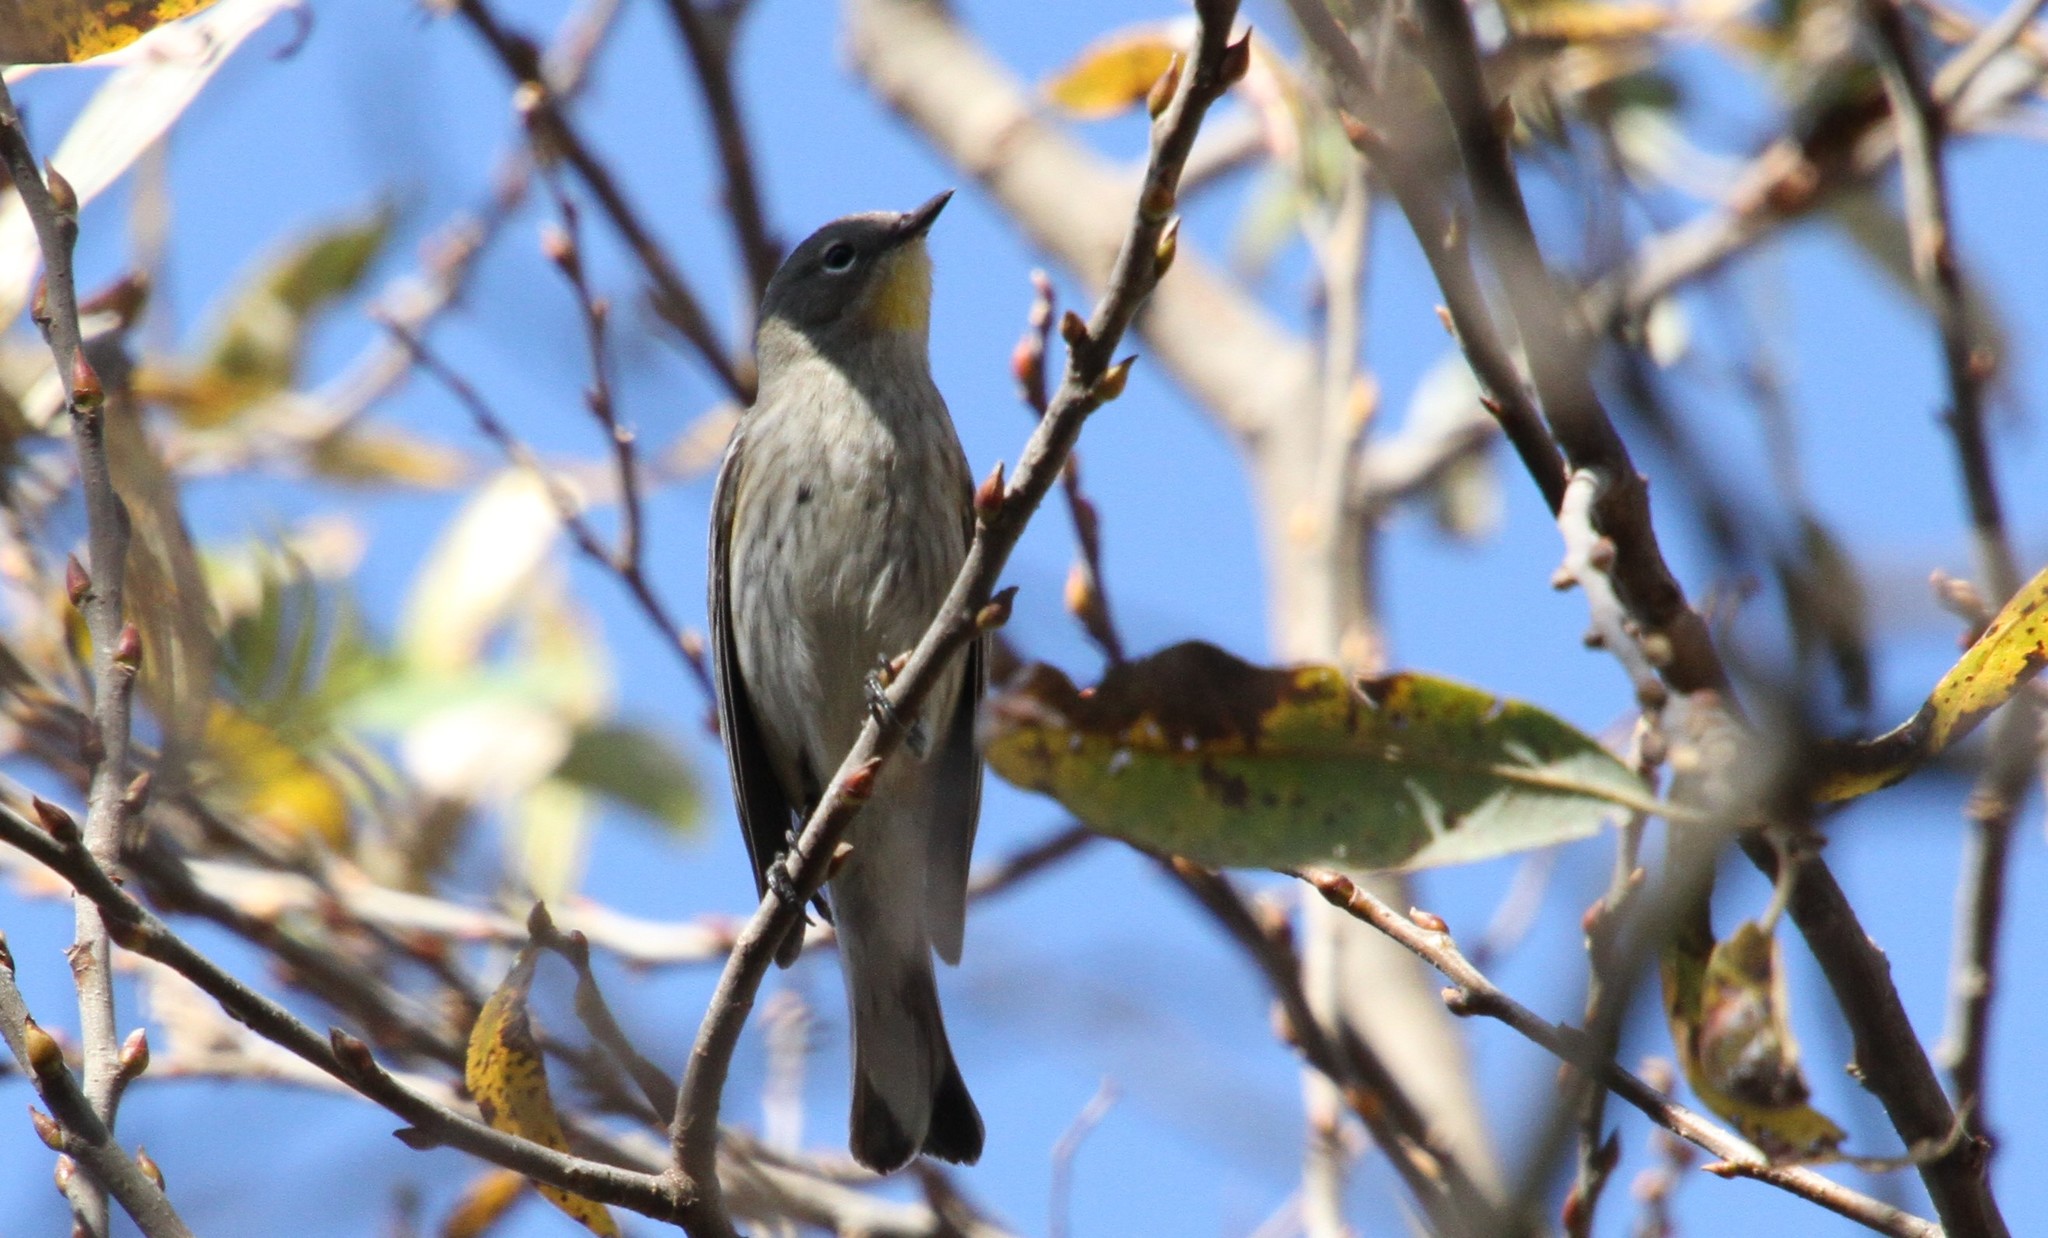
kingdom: Animalia
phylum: Chordata
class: Aves
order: Passeriformes
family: Parulidae
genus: Setophaga
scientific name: Setophaga auduboni
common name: Audubon's warbler
